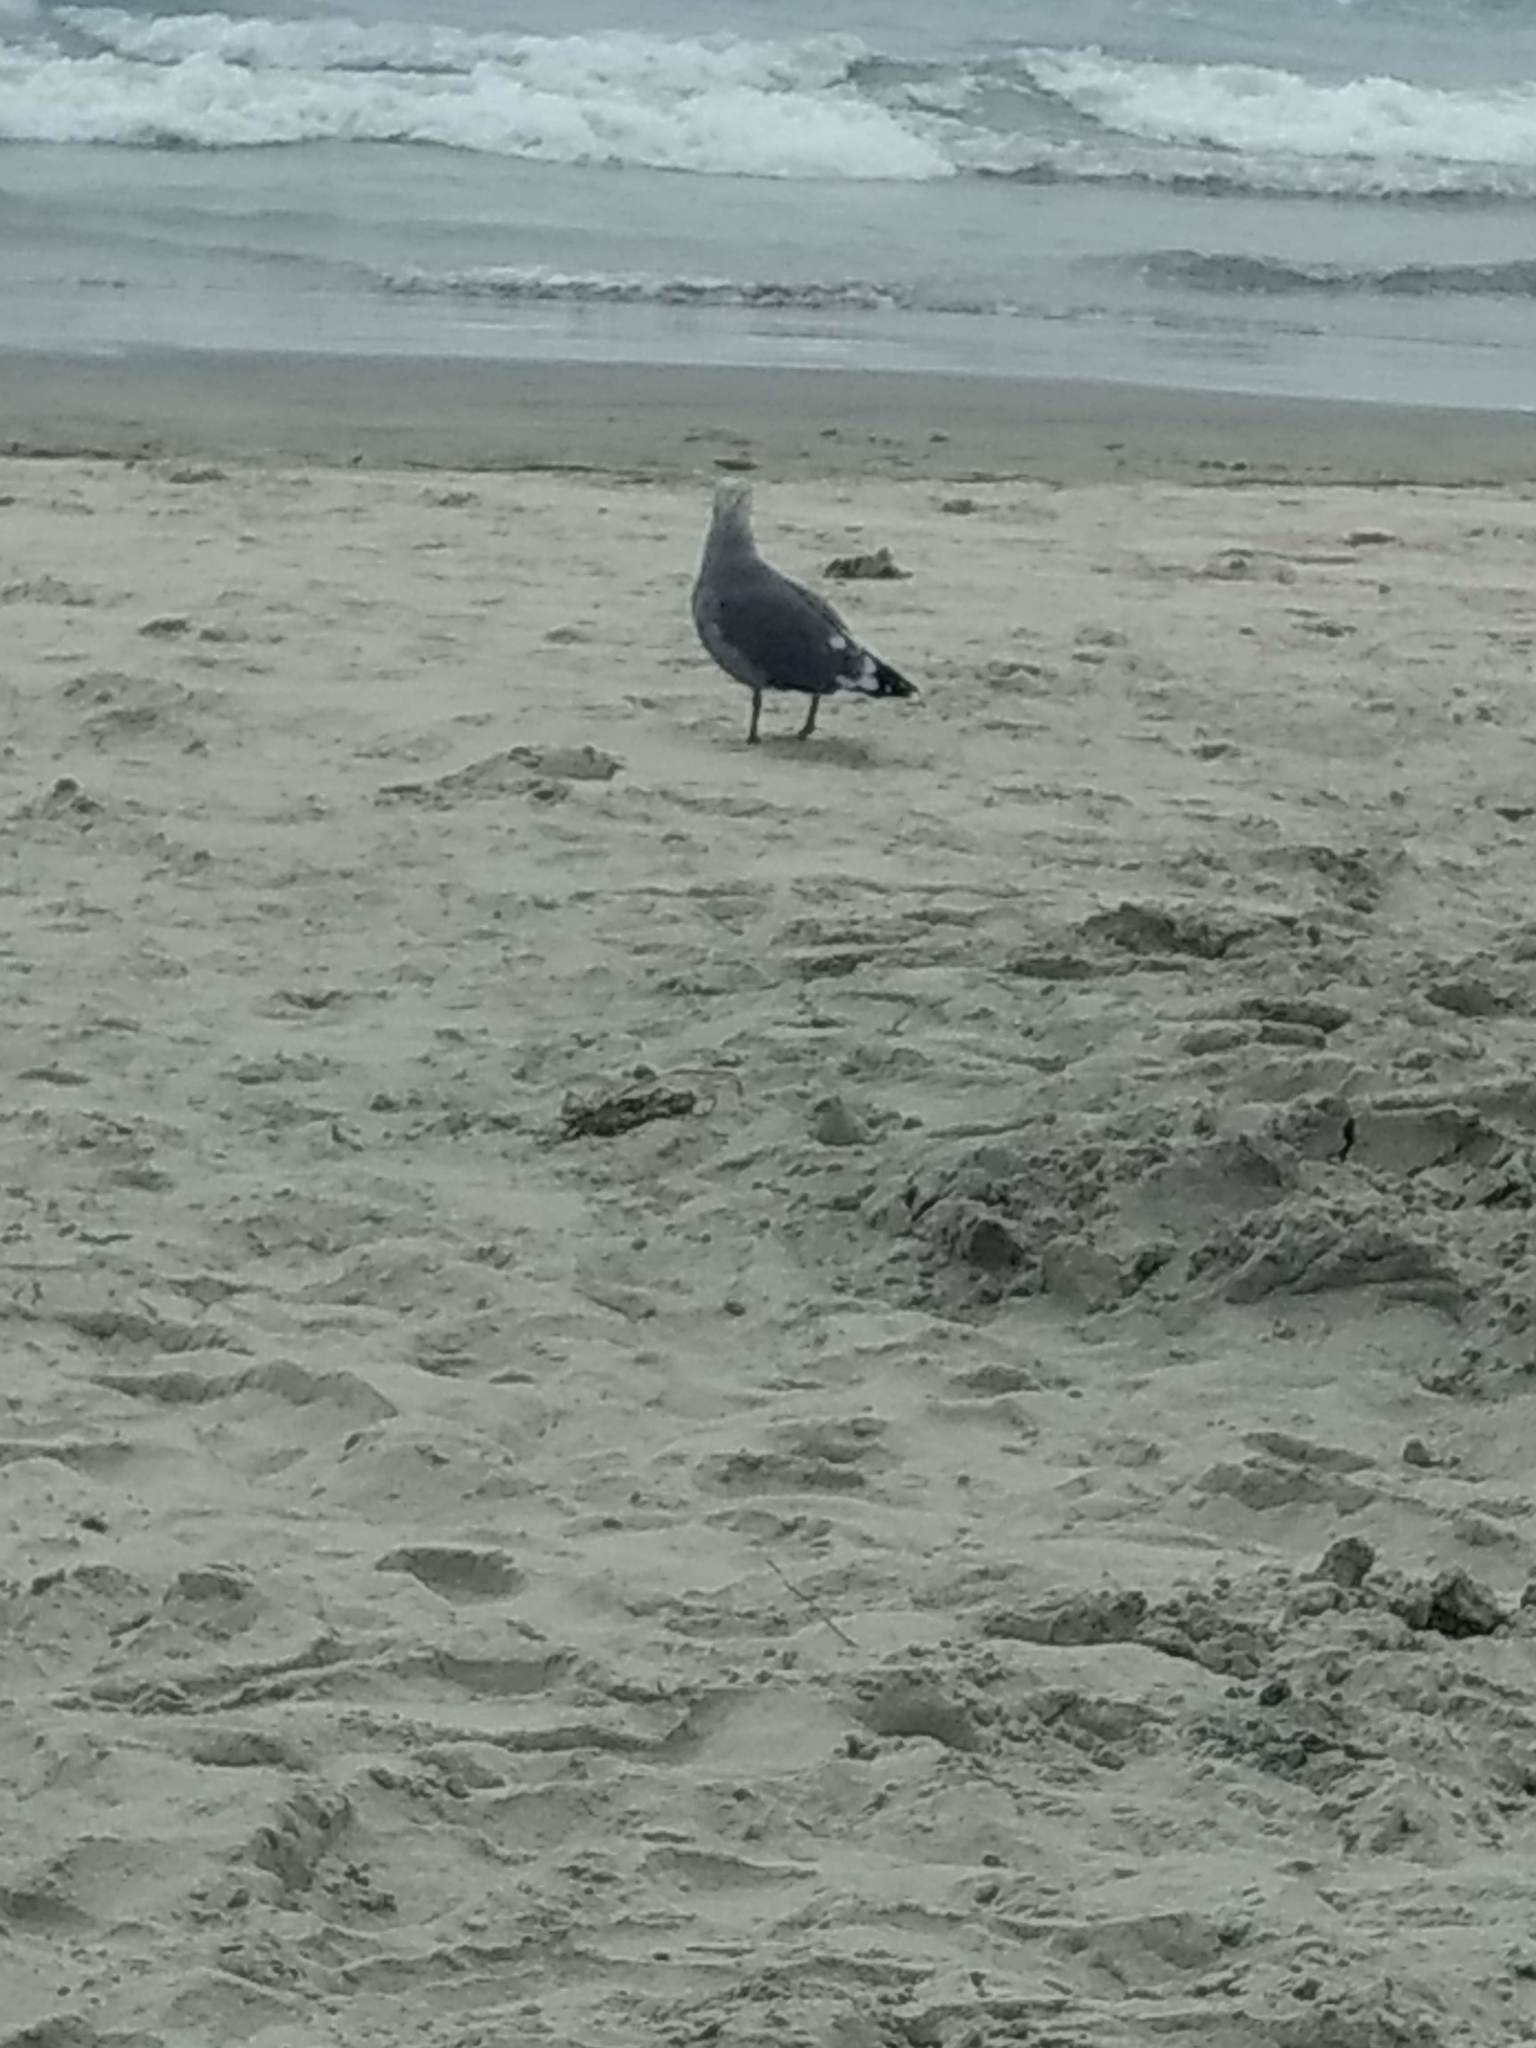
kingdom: Animalia
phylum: Chordata
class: Aves
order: Charadriiformes
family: Laridae
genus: Larus
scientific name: Larus heermanni
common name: Heermann's gull
